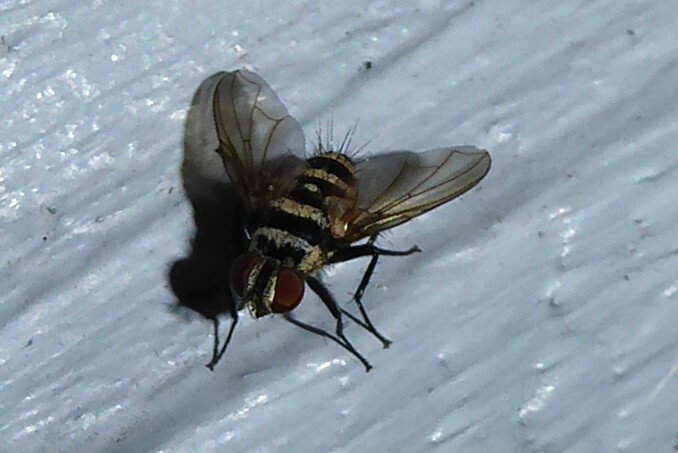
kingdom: Animalia
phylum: Arthropoda
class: Insecta
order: Diptera
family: Tachinidae
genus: Trigonospila
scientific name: Trigonospila brevifacies
